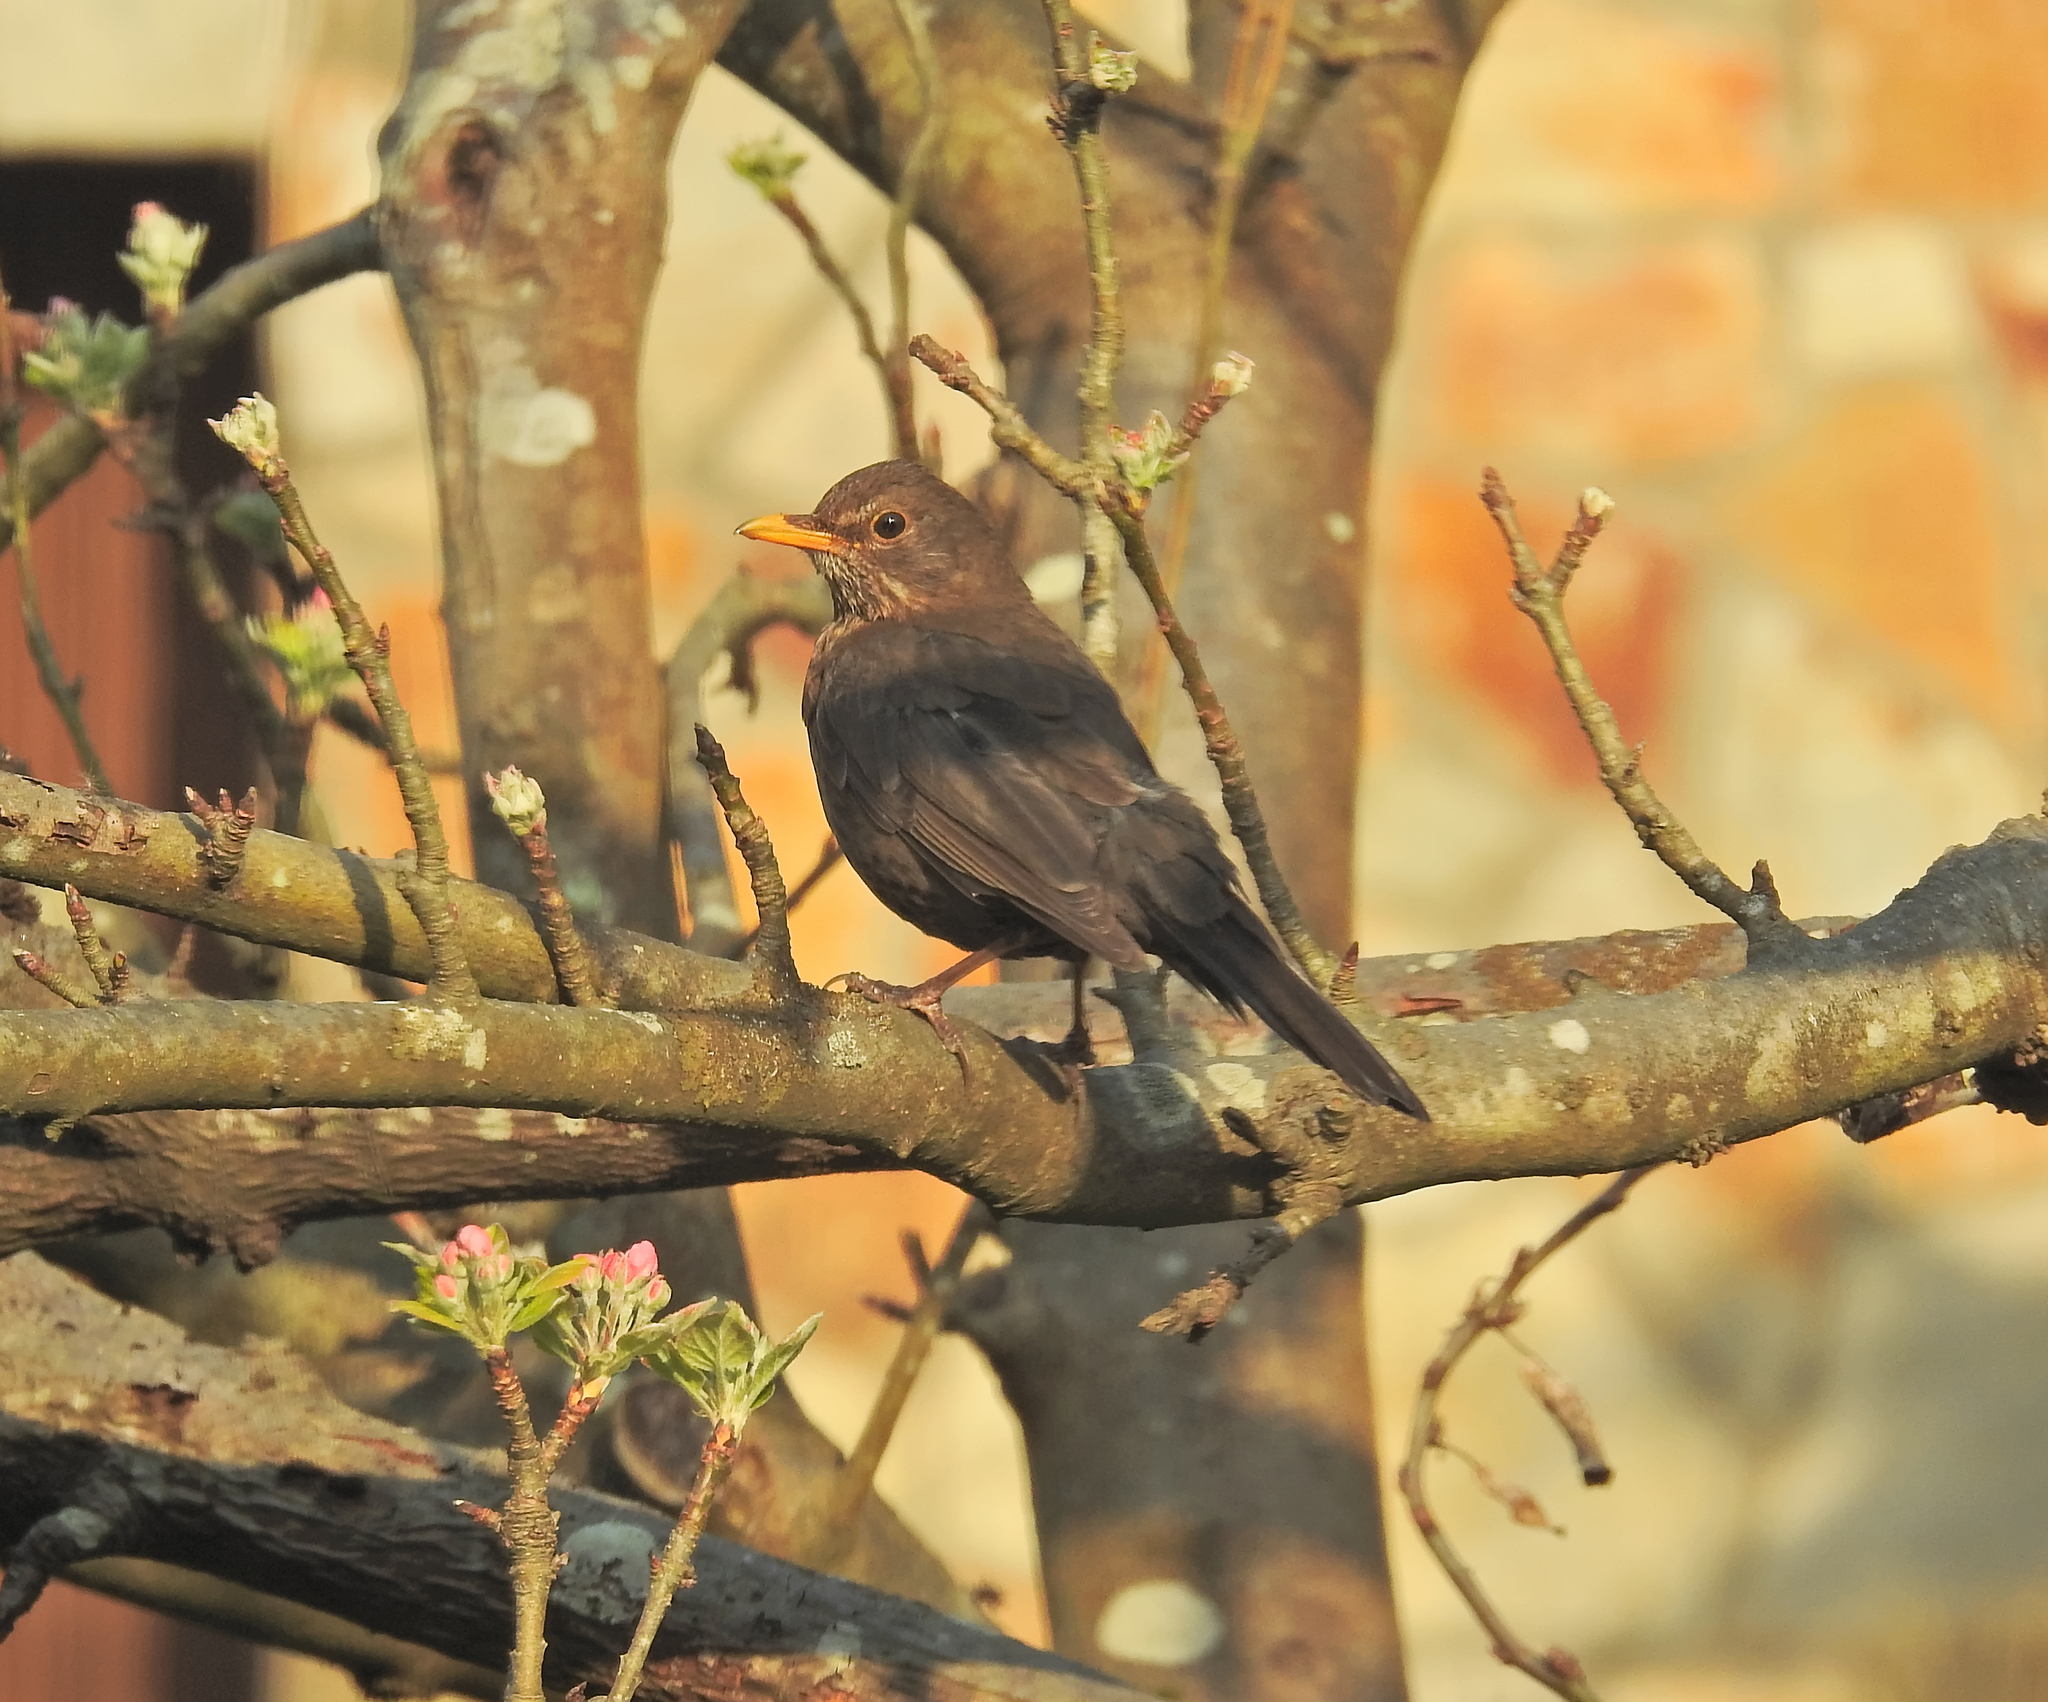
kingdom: Animalia
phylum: Chordata
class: Aves
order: Passeriformes
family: Turdidae
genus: Turdus
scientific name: Turdus merula
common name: Common blackbird
